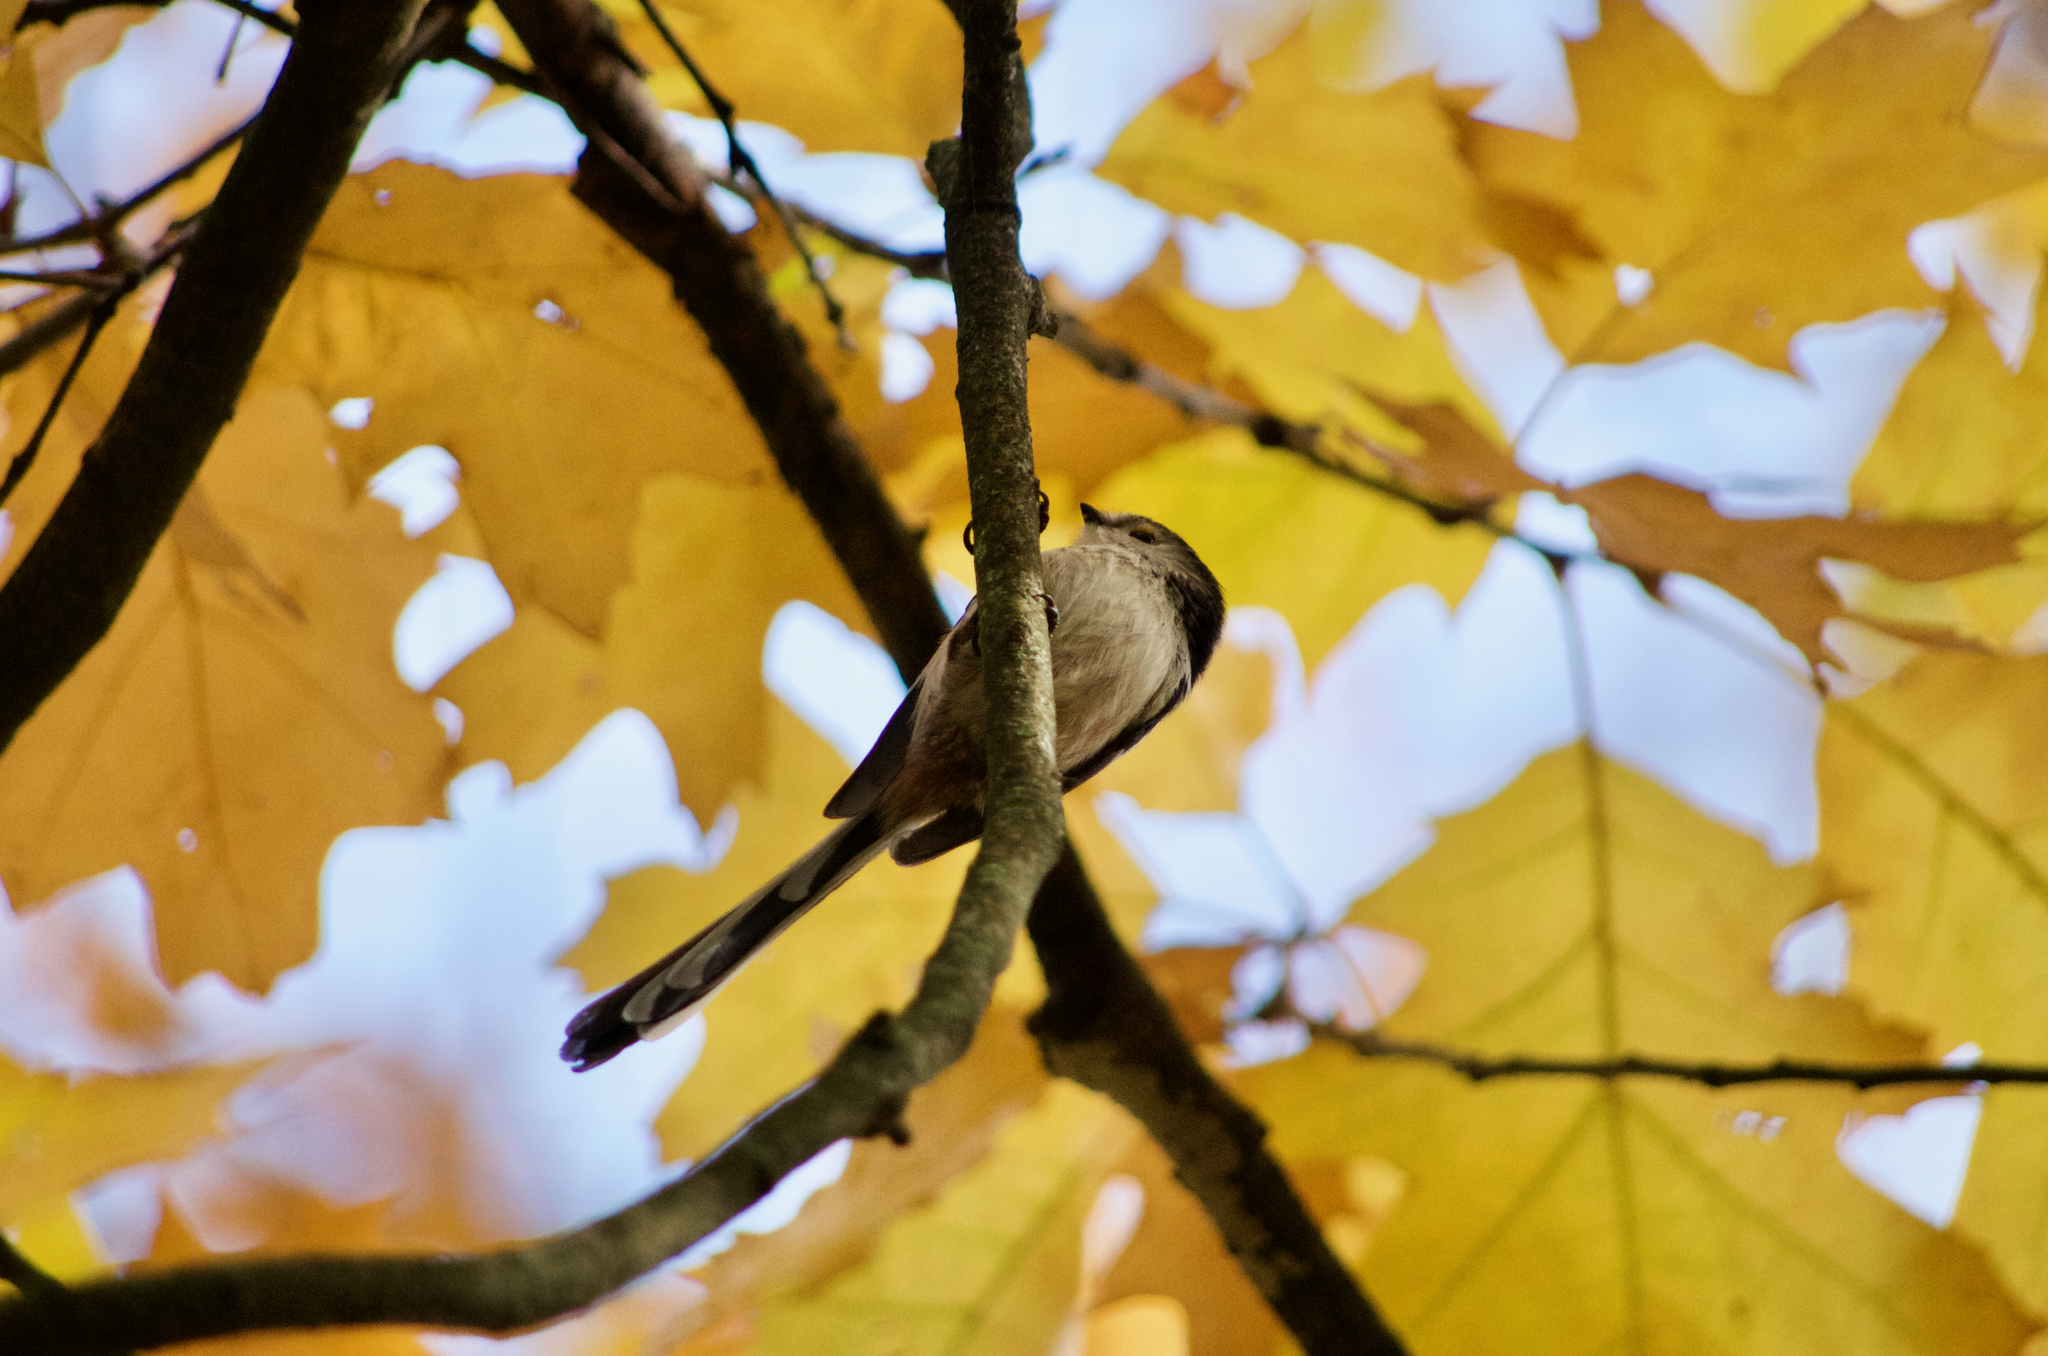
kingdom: Animalia
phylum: Chordata
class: Aves
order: Passeriformes
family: Aegithalidae
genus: Aegithalos
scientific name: Aegithalos caudatus
